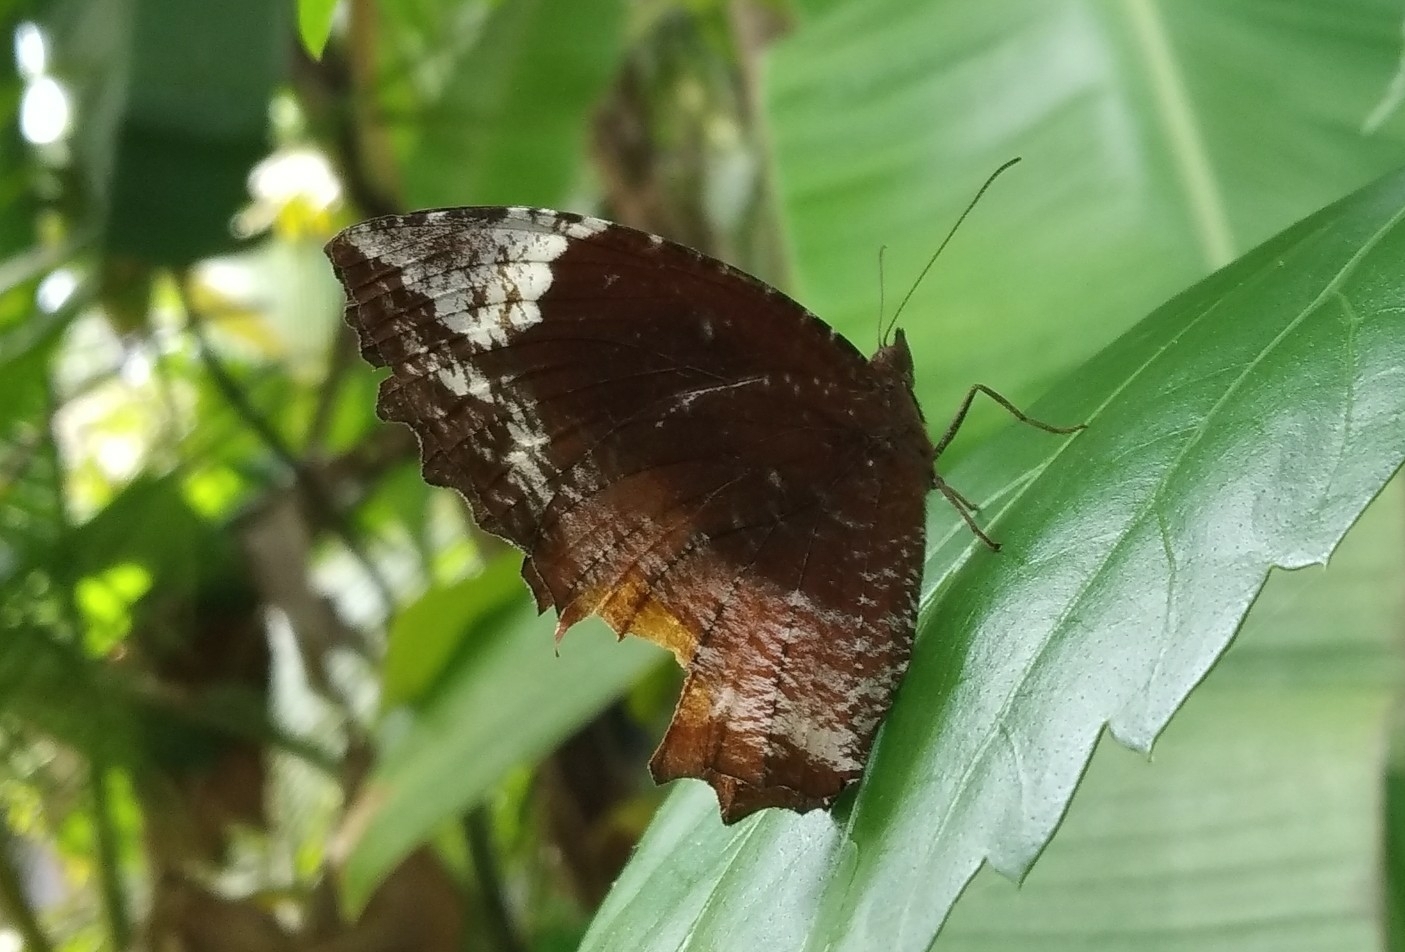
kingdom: Animalia
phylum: Arthropoda
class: Insecta
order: Lepidoptera
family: Nymphalidae
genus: Elymnias
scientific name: Elymnias caudata
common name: Tailed palmfly
